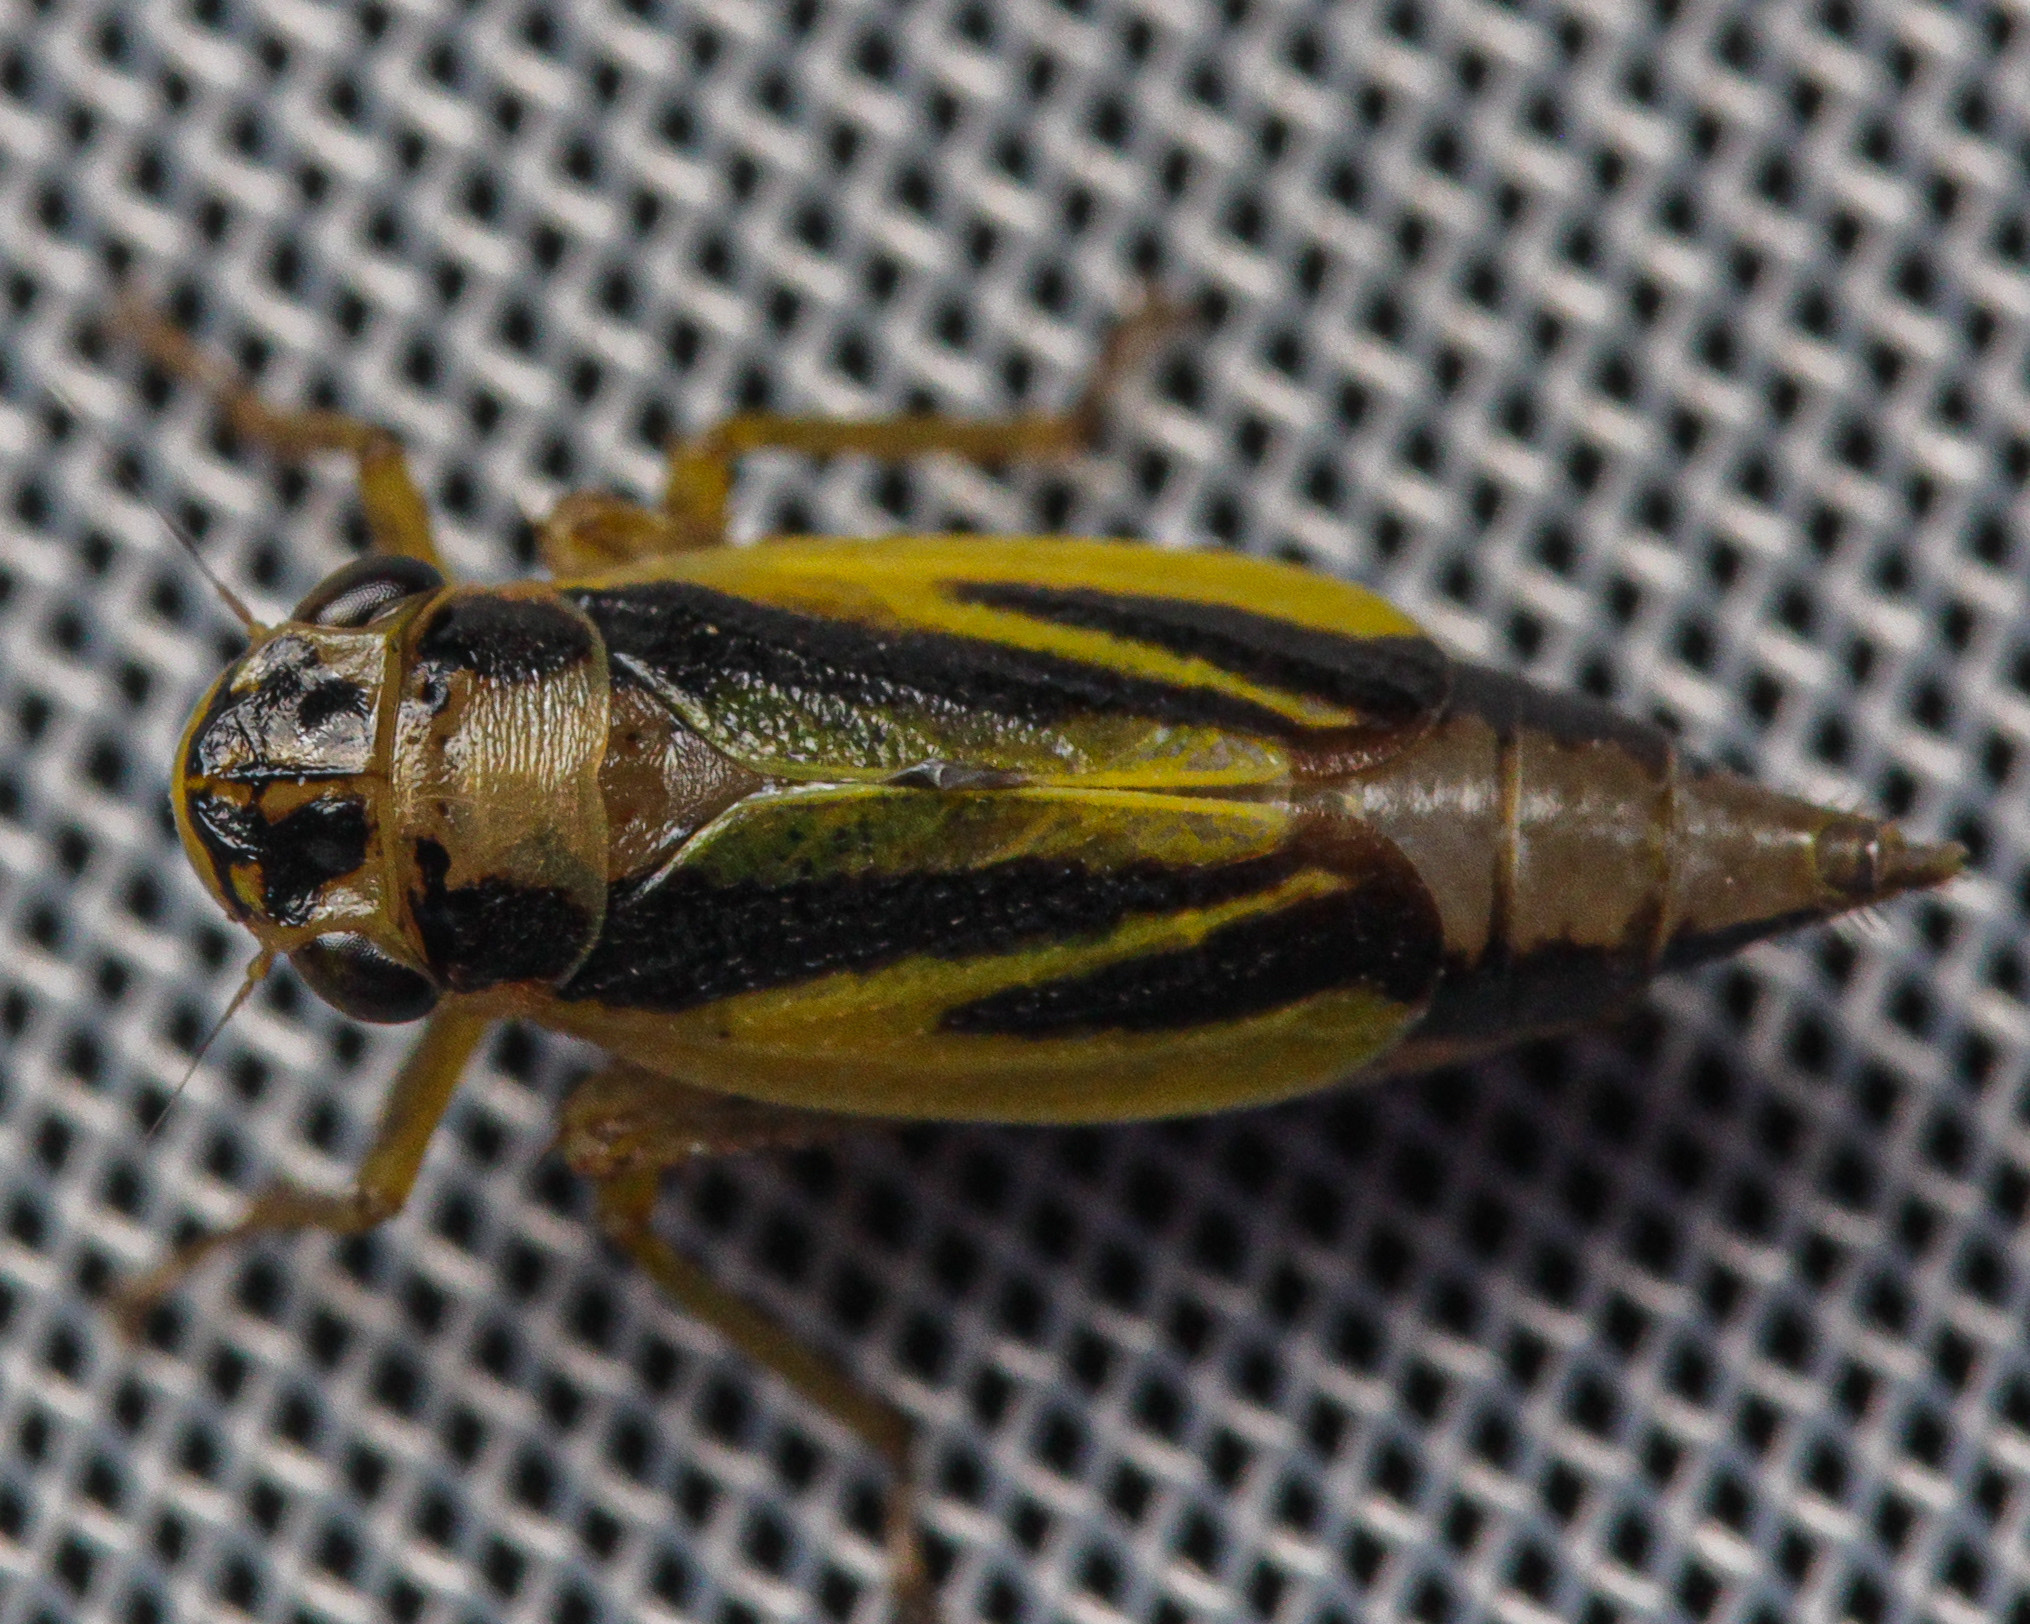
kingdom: Animalia
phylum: Arthropoda
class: Insecta
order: Hemiptera
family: Cicadellidae
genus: Evacanthus
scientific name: Evacanthus interruptus
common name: Leafhopper
